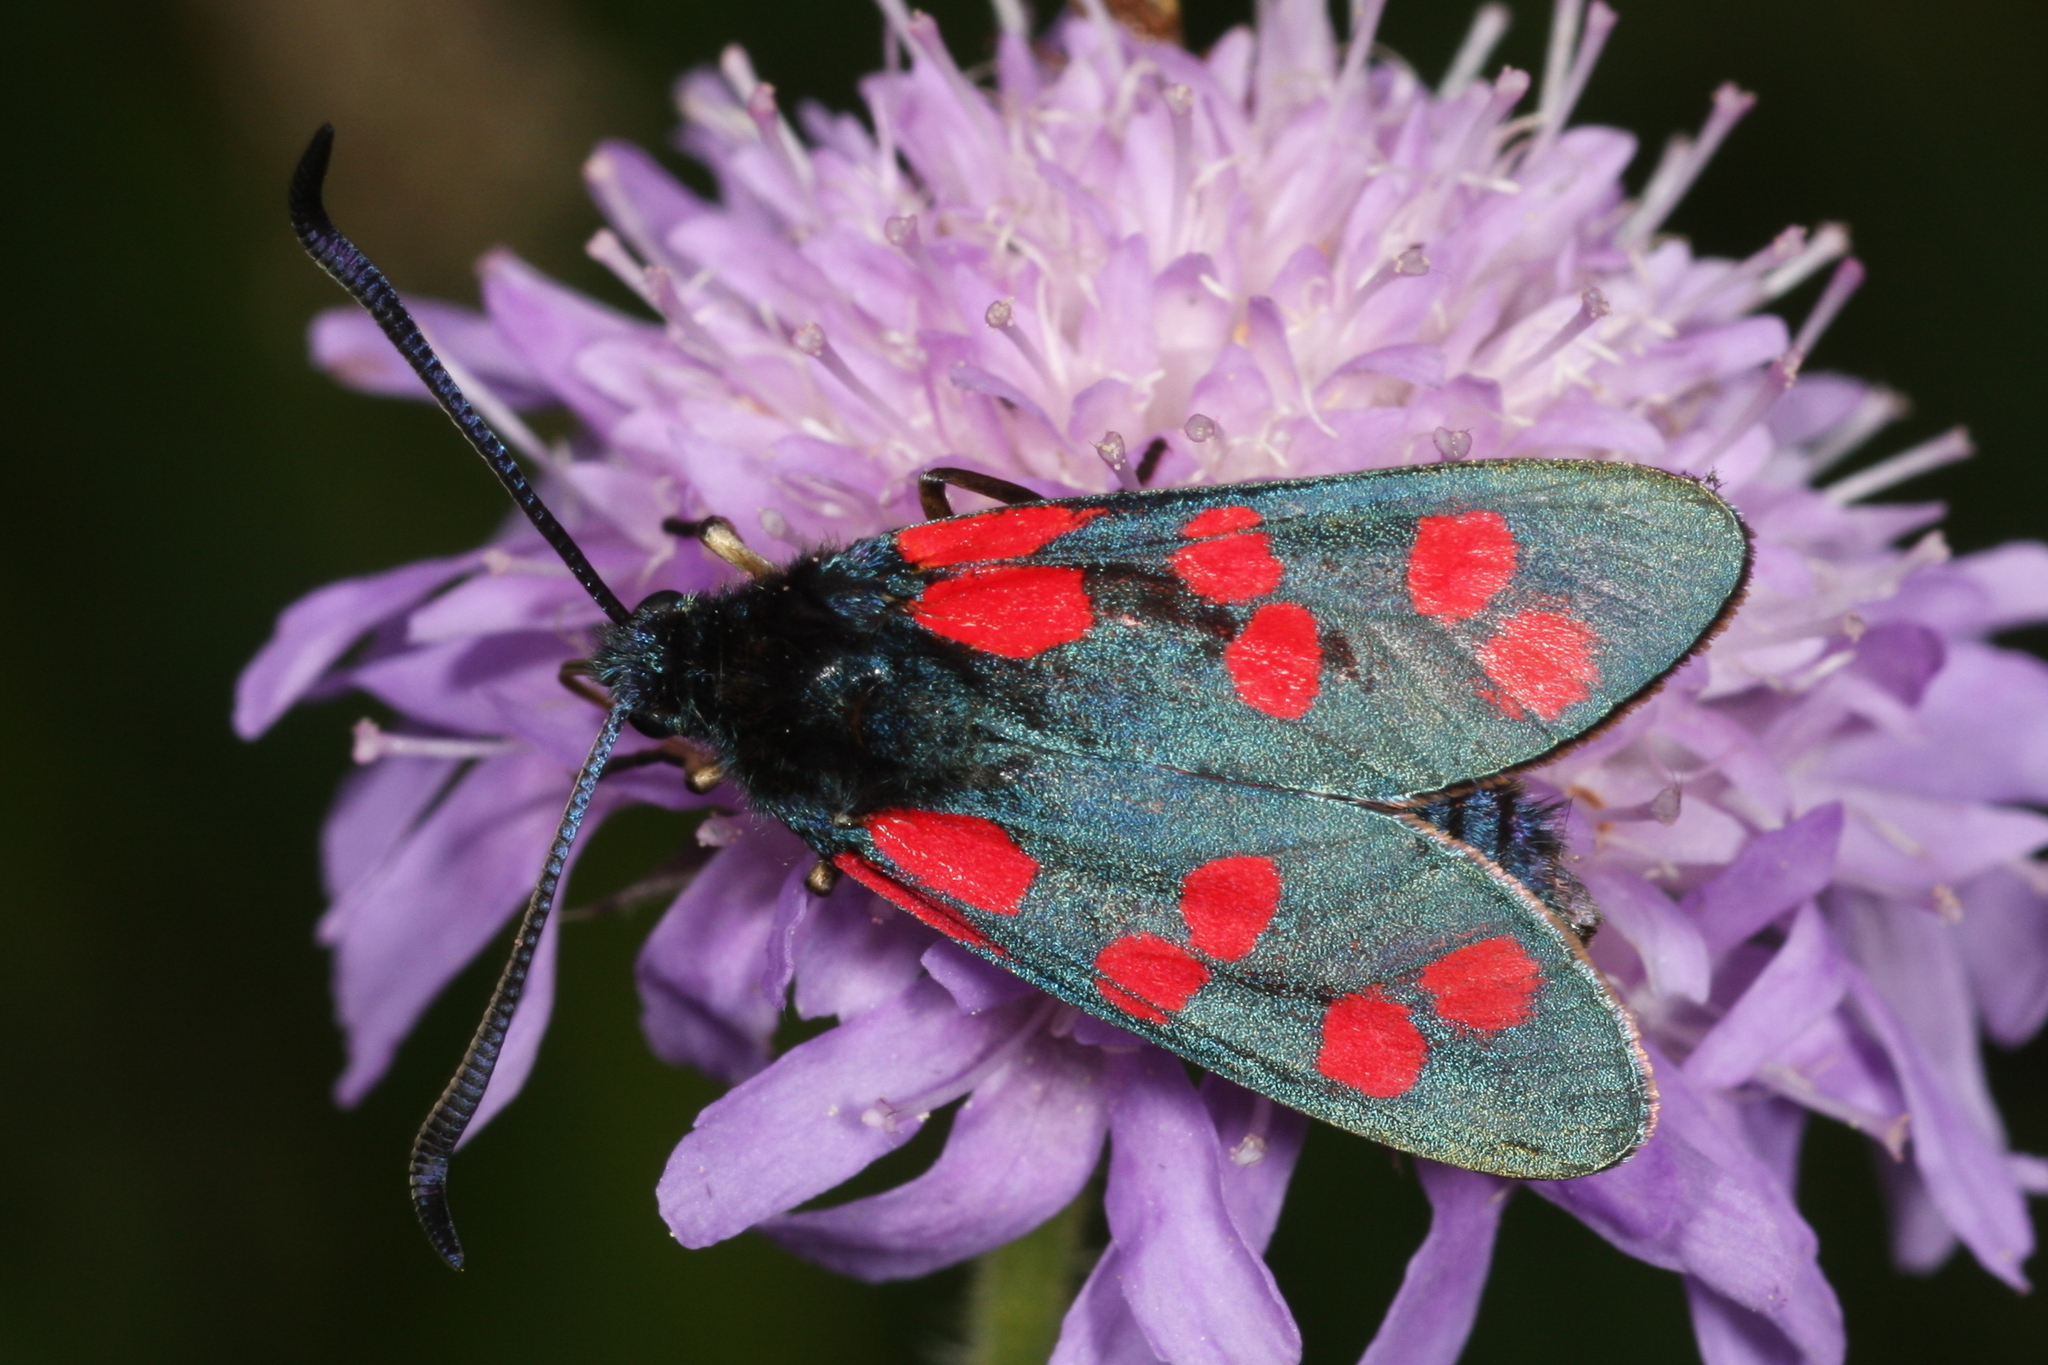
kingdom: Animalia
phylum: Arthropoda
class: Insecta
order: Lepidoptera
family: Zygaenidae
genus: Zygaena
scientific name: Zygaena filipendulae
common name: Six-spot burnet
